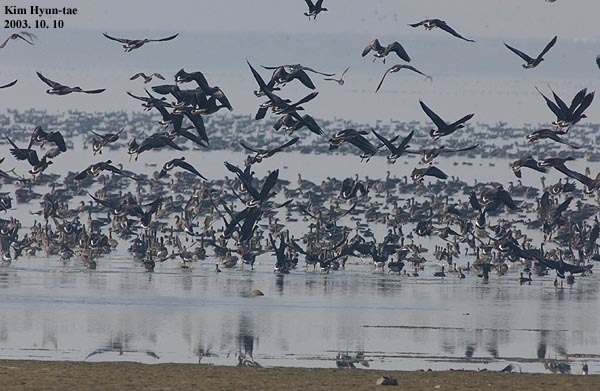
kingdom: Animalia
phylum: Chordata
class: Aves
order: Anseriformes
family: Anatidae
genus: Anser
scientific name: Anser fabalis
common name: Bean goose
